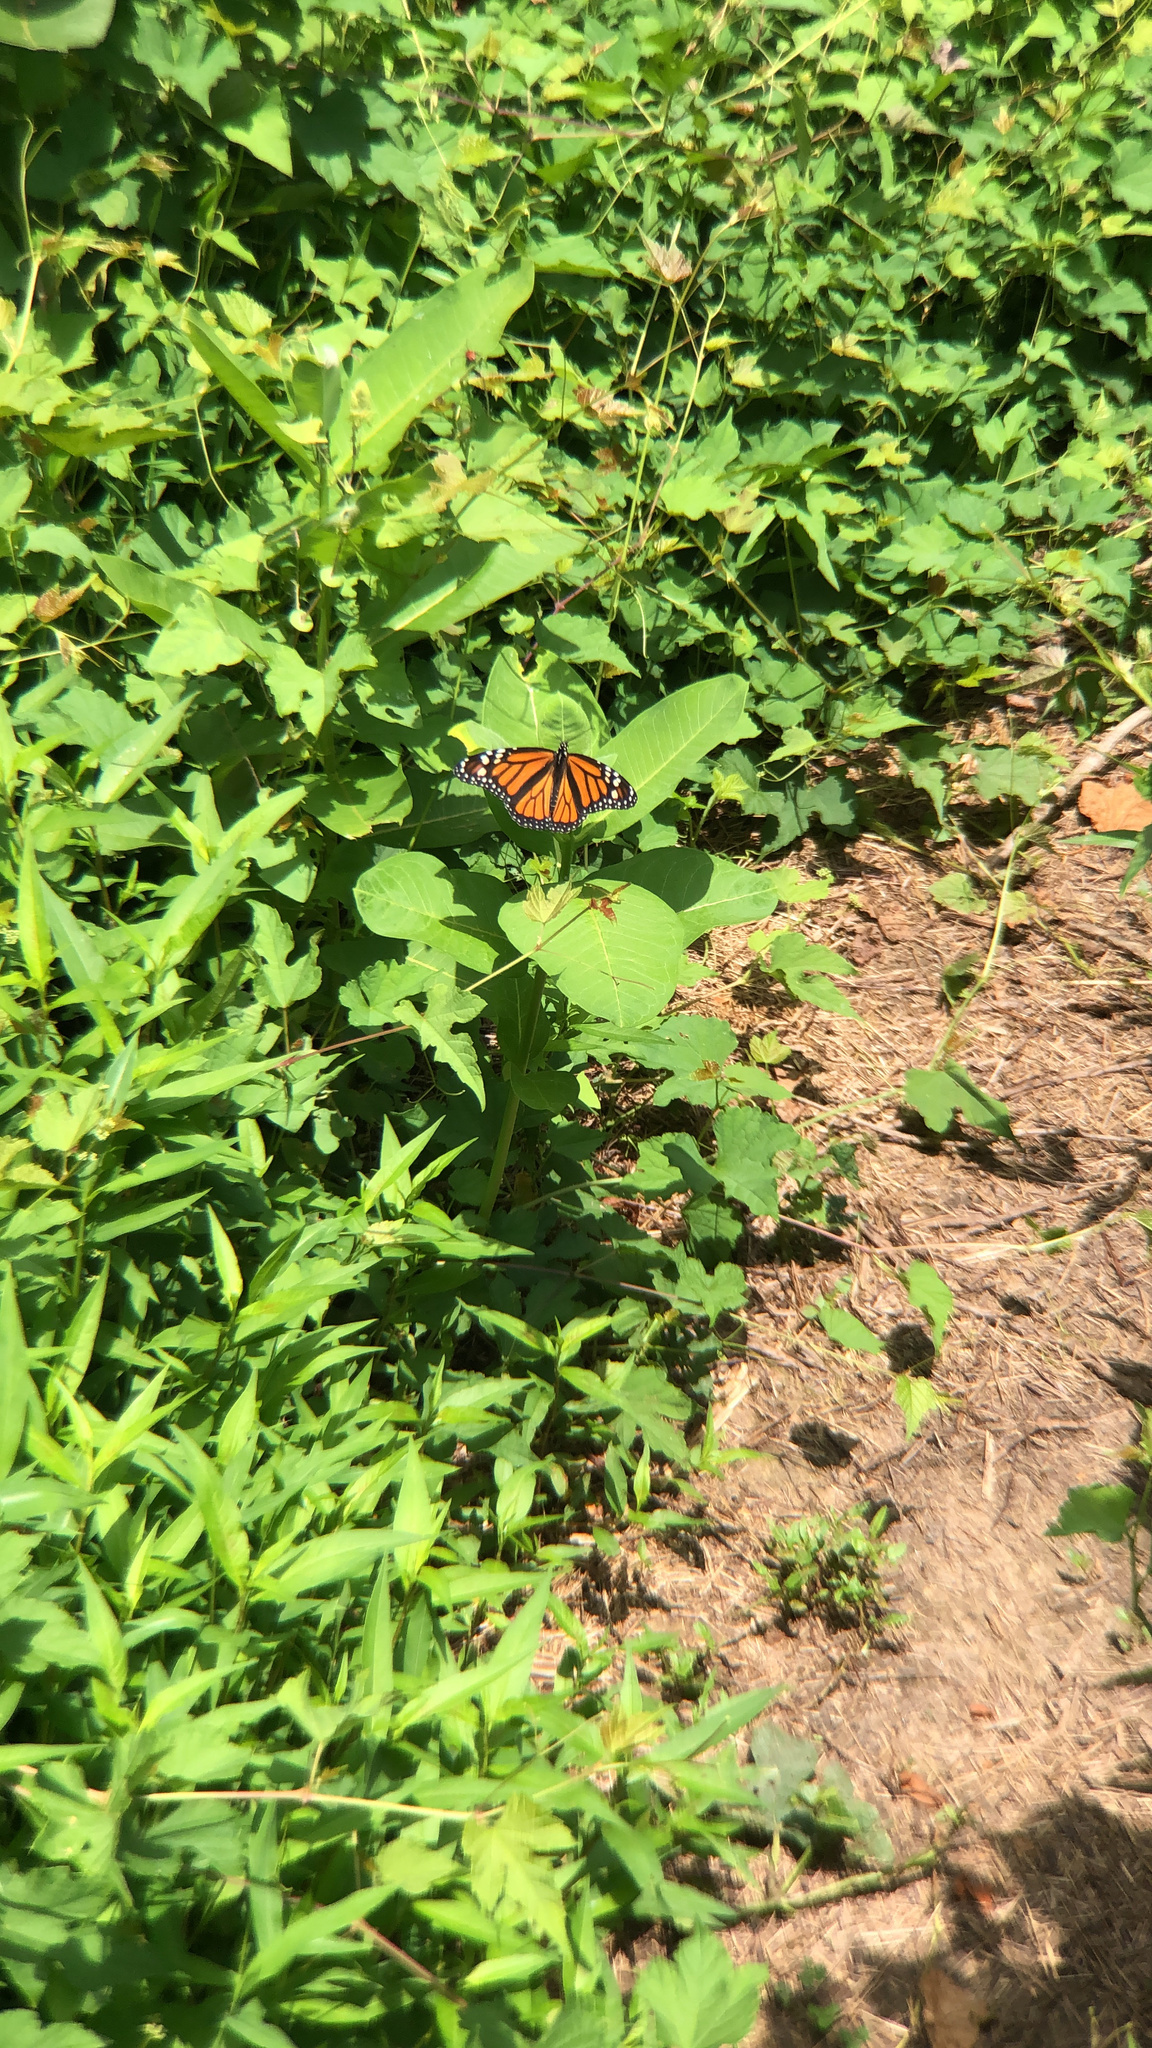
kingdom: Animalia
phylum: Arthropoda
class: Insecta
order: Lepidoptera
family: Nymphalidae
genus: Danaus
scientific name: Danaus plexippus
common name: Monarch
